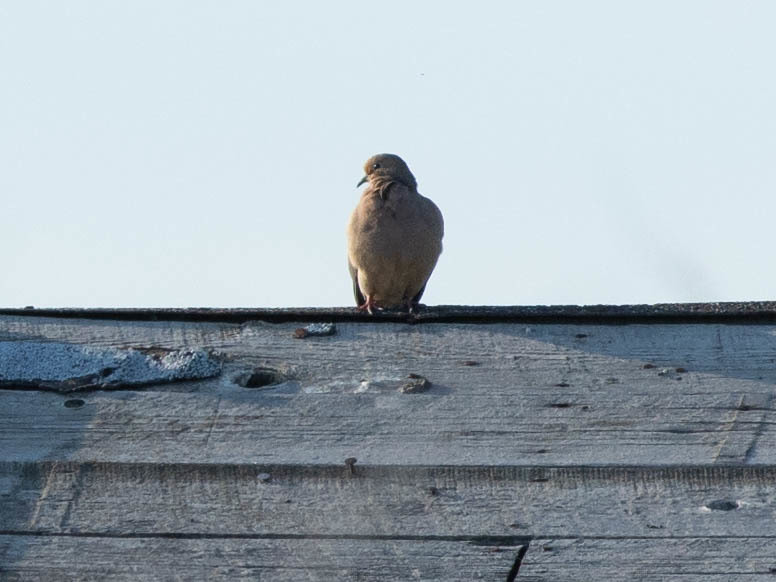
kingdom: Animalia
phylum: Chordata
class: Aves
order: Columbiformes
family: Columbidae
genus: Zenaida
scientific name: Zenaida macroura
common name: Mourning dove
